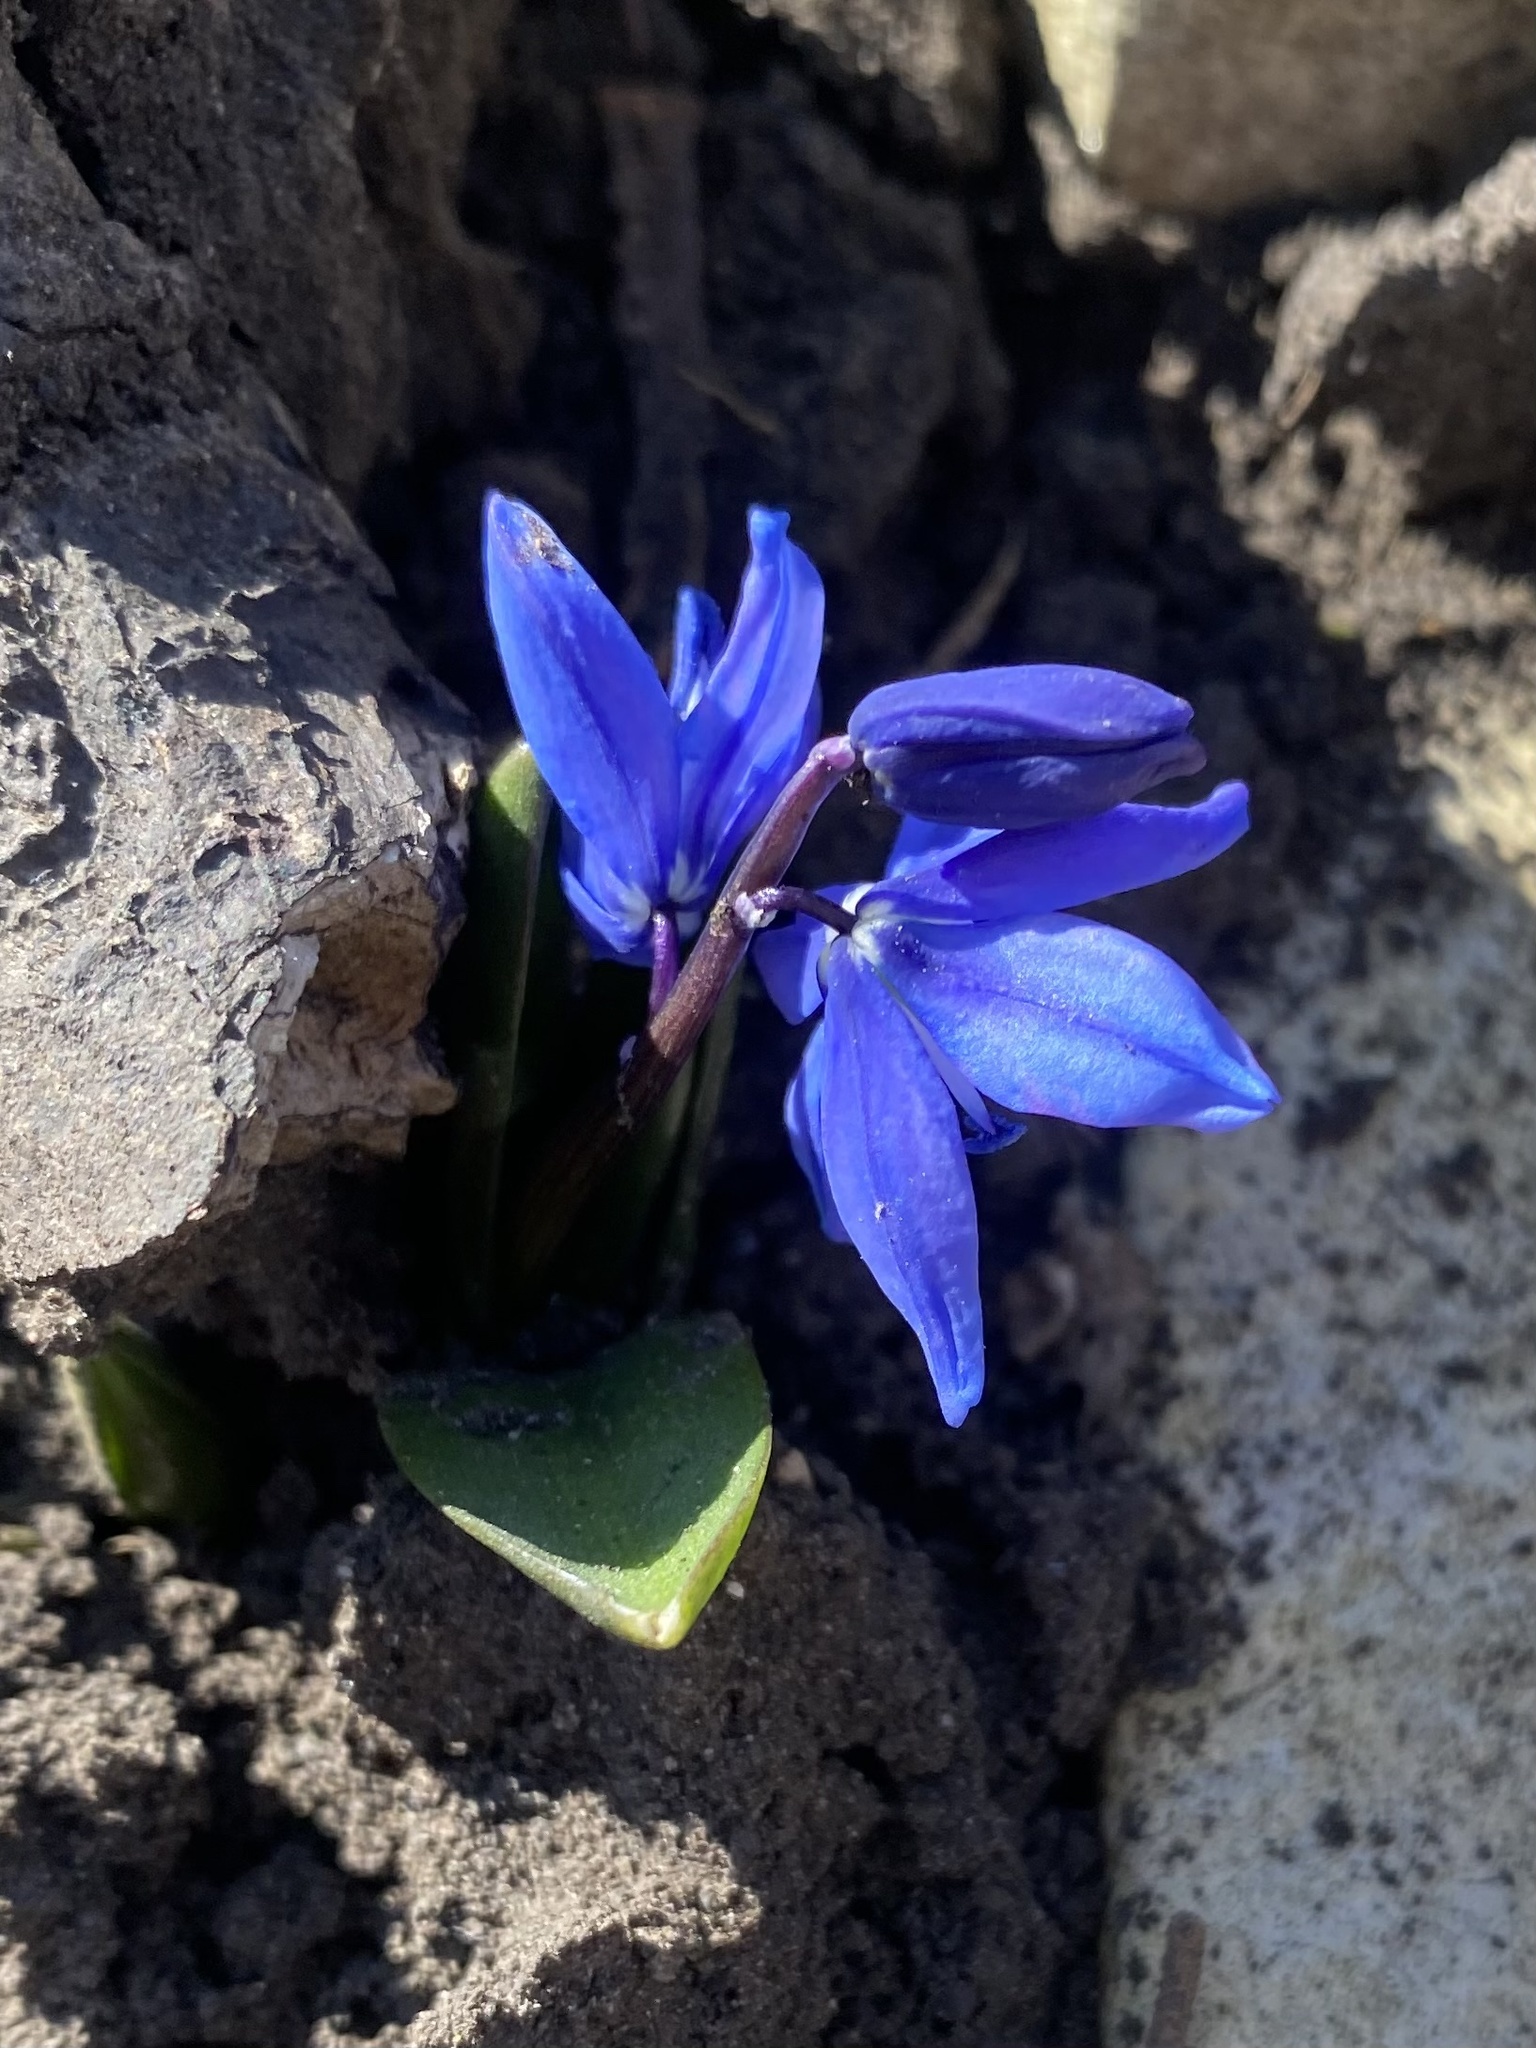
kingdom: Plantae
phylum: Tracheophyta
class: Liliopsida
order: Asparagales
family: Asparagaceae
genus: Scilla
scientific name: Scilla siberica
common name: Siberian squill
